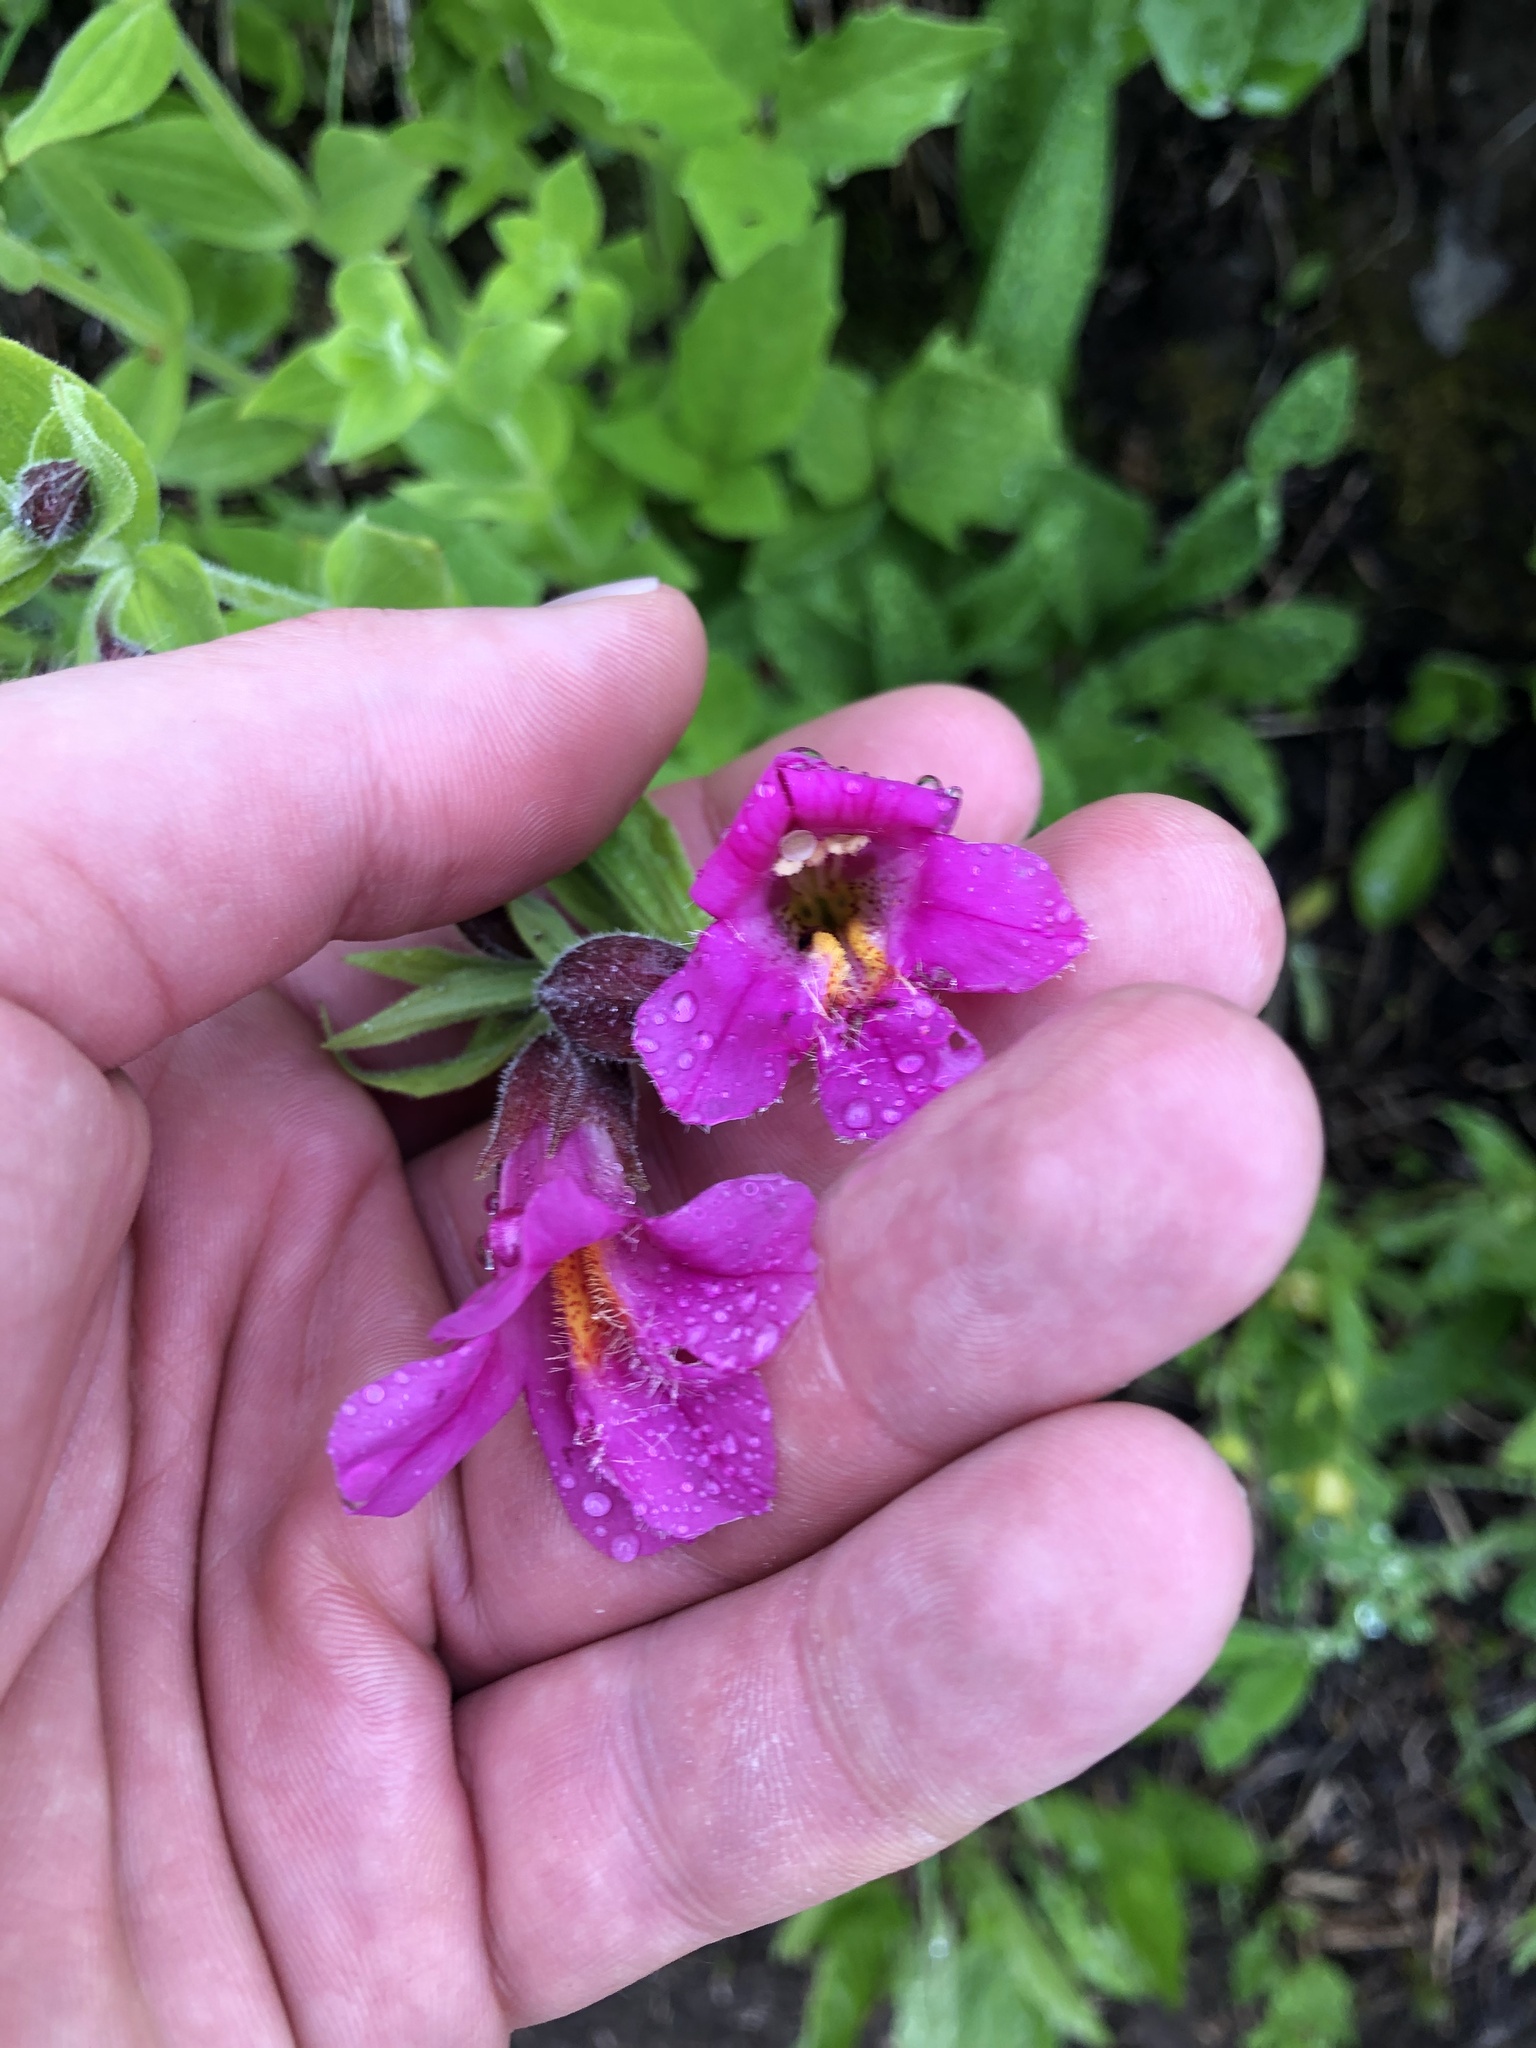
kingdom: Plantae
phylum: Tracheophyta
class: Magnoliopsida
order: Lamiales
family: Phrymaceae
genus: Erythranthe
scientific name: Erythranthe lewisii
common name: Lewis's monkey-flower
